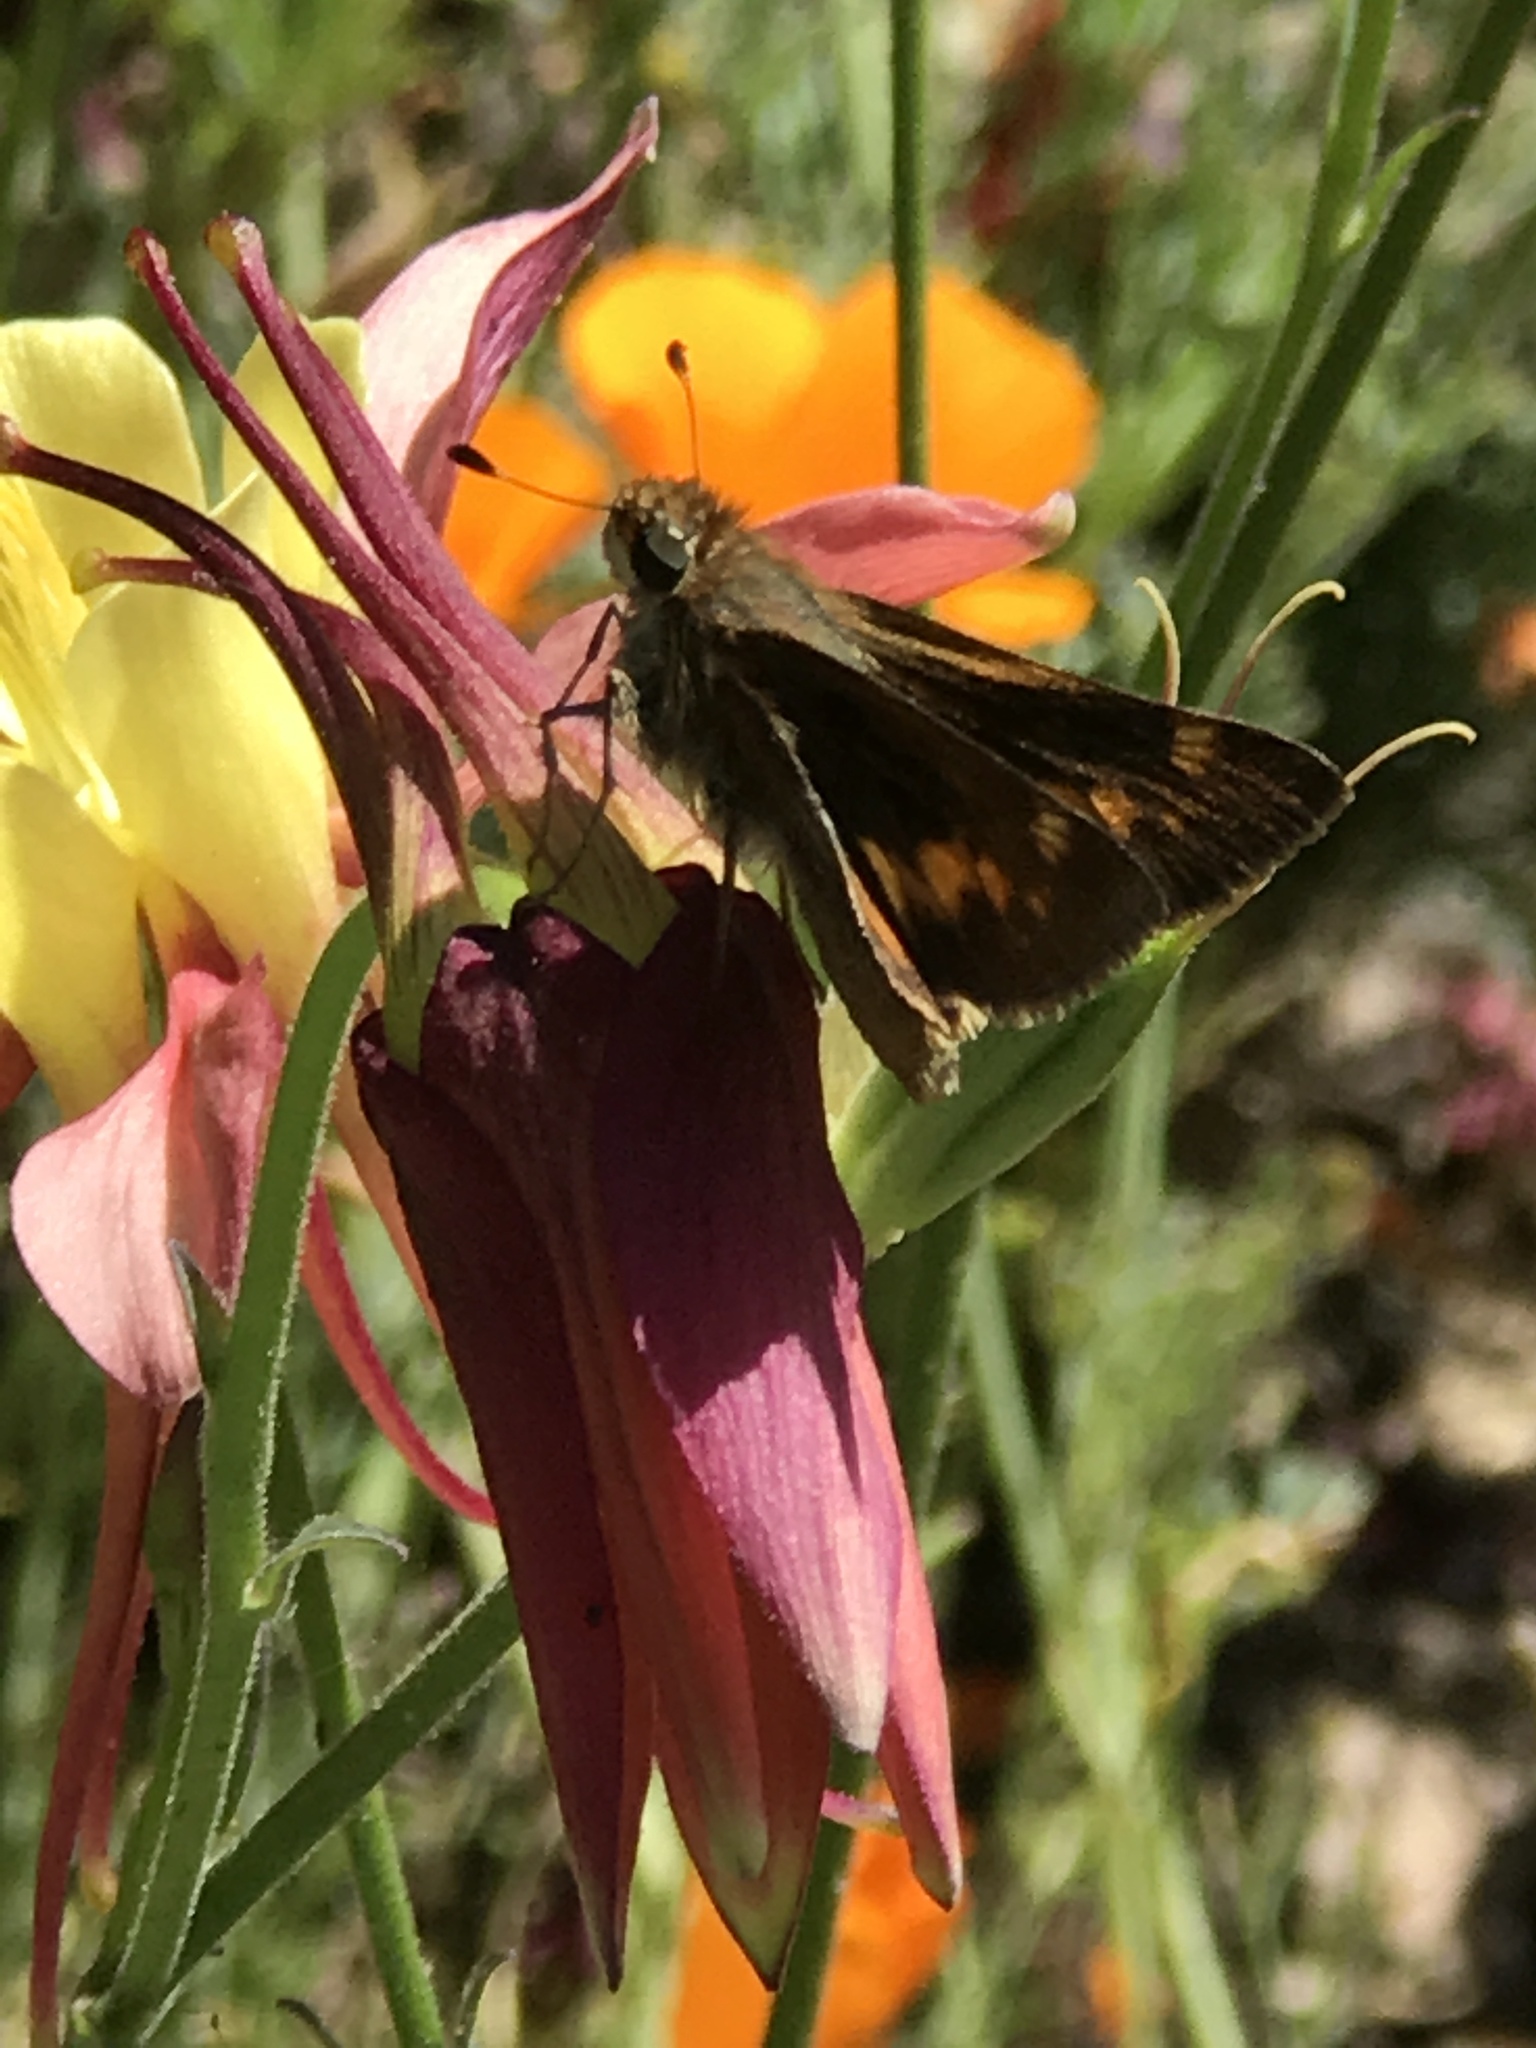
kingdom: Animalia
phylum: Arthropoda
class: Insecta
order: Lepidoptera
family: Hesperiidae
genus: Lon
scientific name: Lon melane
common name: Umber skipper
